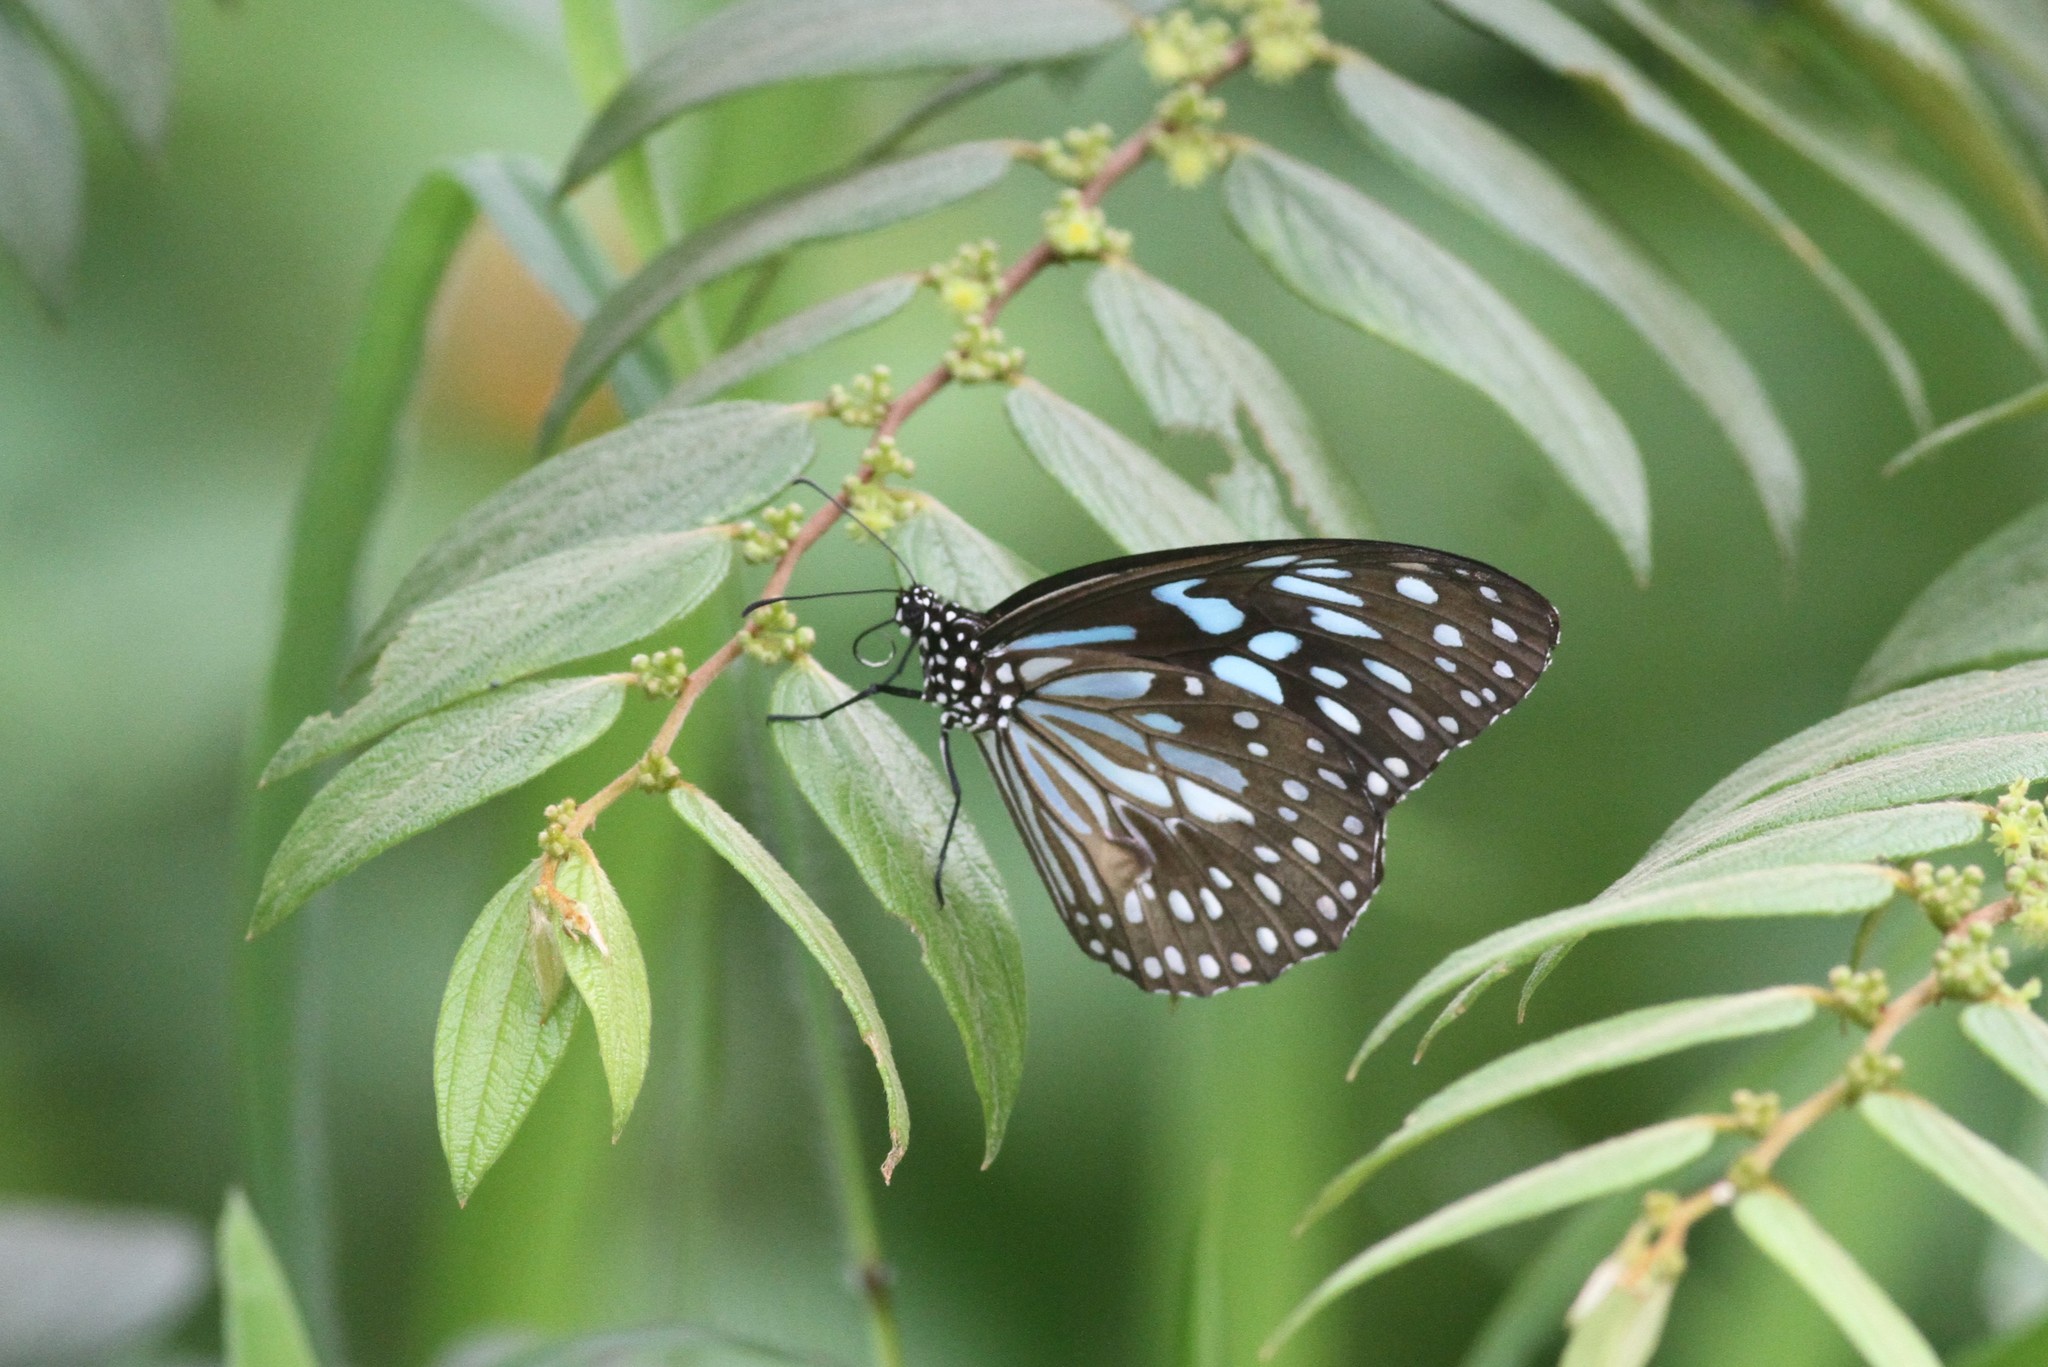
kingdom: Animalia
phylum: Arthropoda
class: Insecta
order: Lepidoptera
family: Nymphalidae
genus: Tirumala
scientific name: Tirumala septentrionis
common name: Dark blue tiger butterfly
